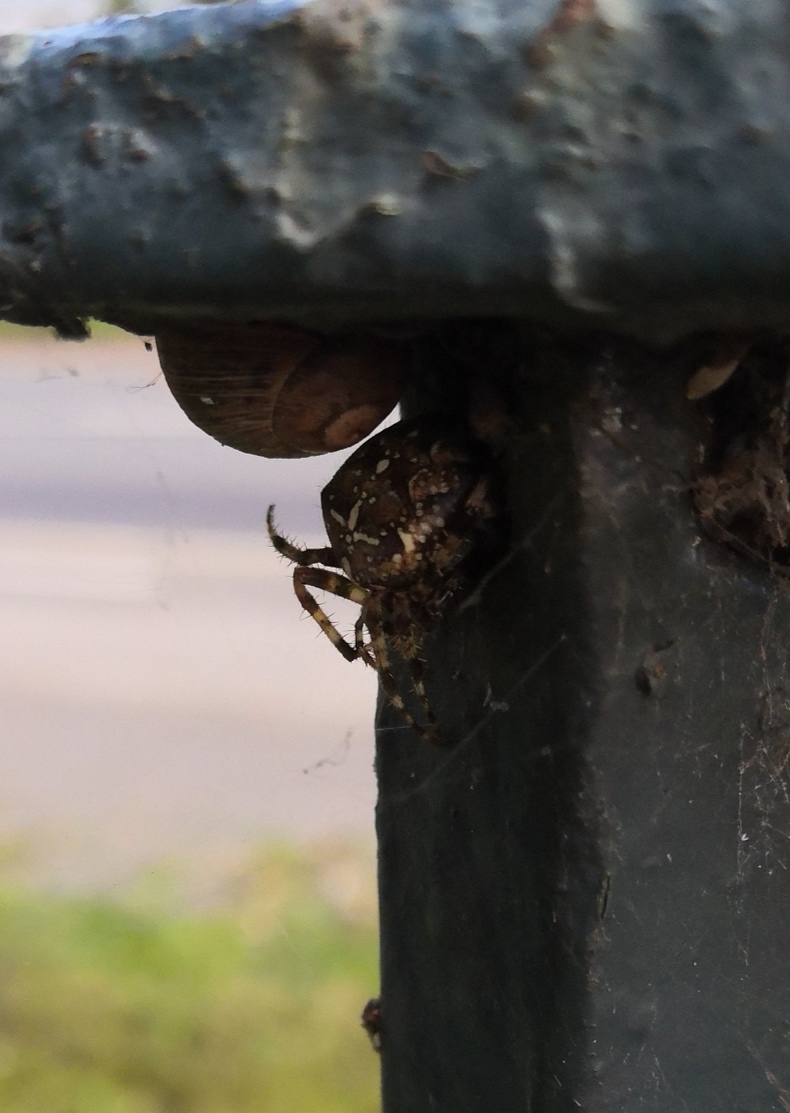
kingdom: Animalia
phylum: Arthropoda
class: Arachnida
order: Araneae
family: Araneidae
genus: Araneus
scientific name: Araneus diadematus
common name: Cross orbweaver
